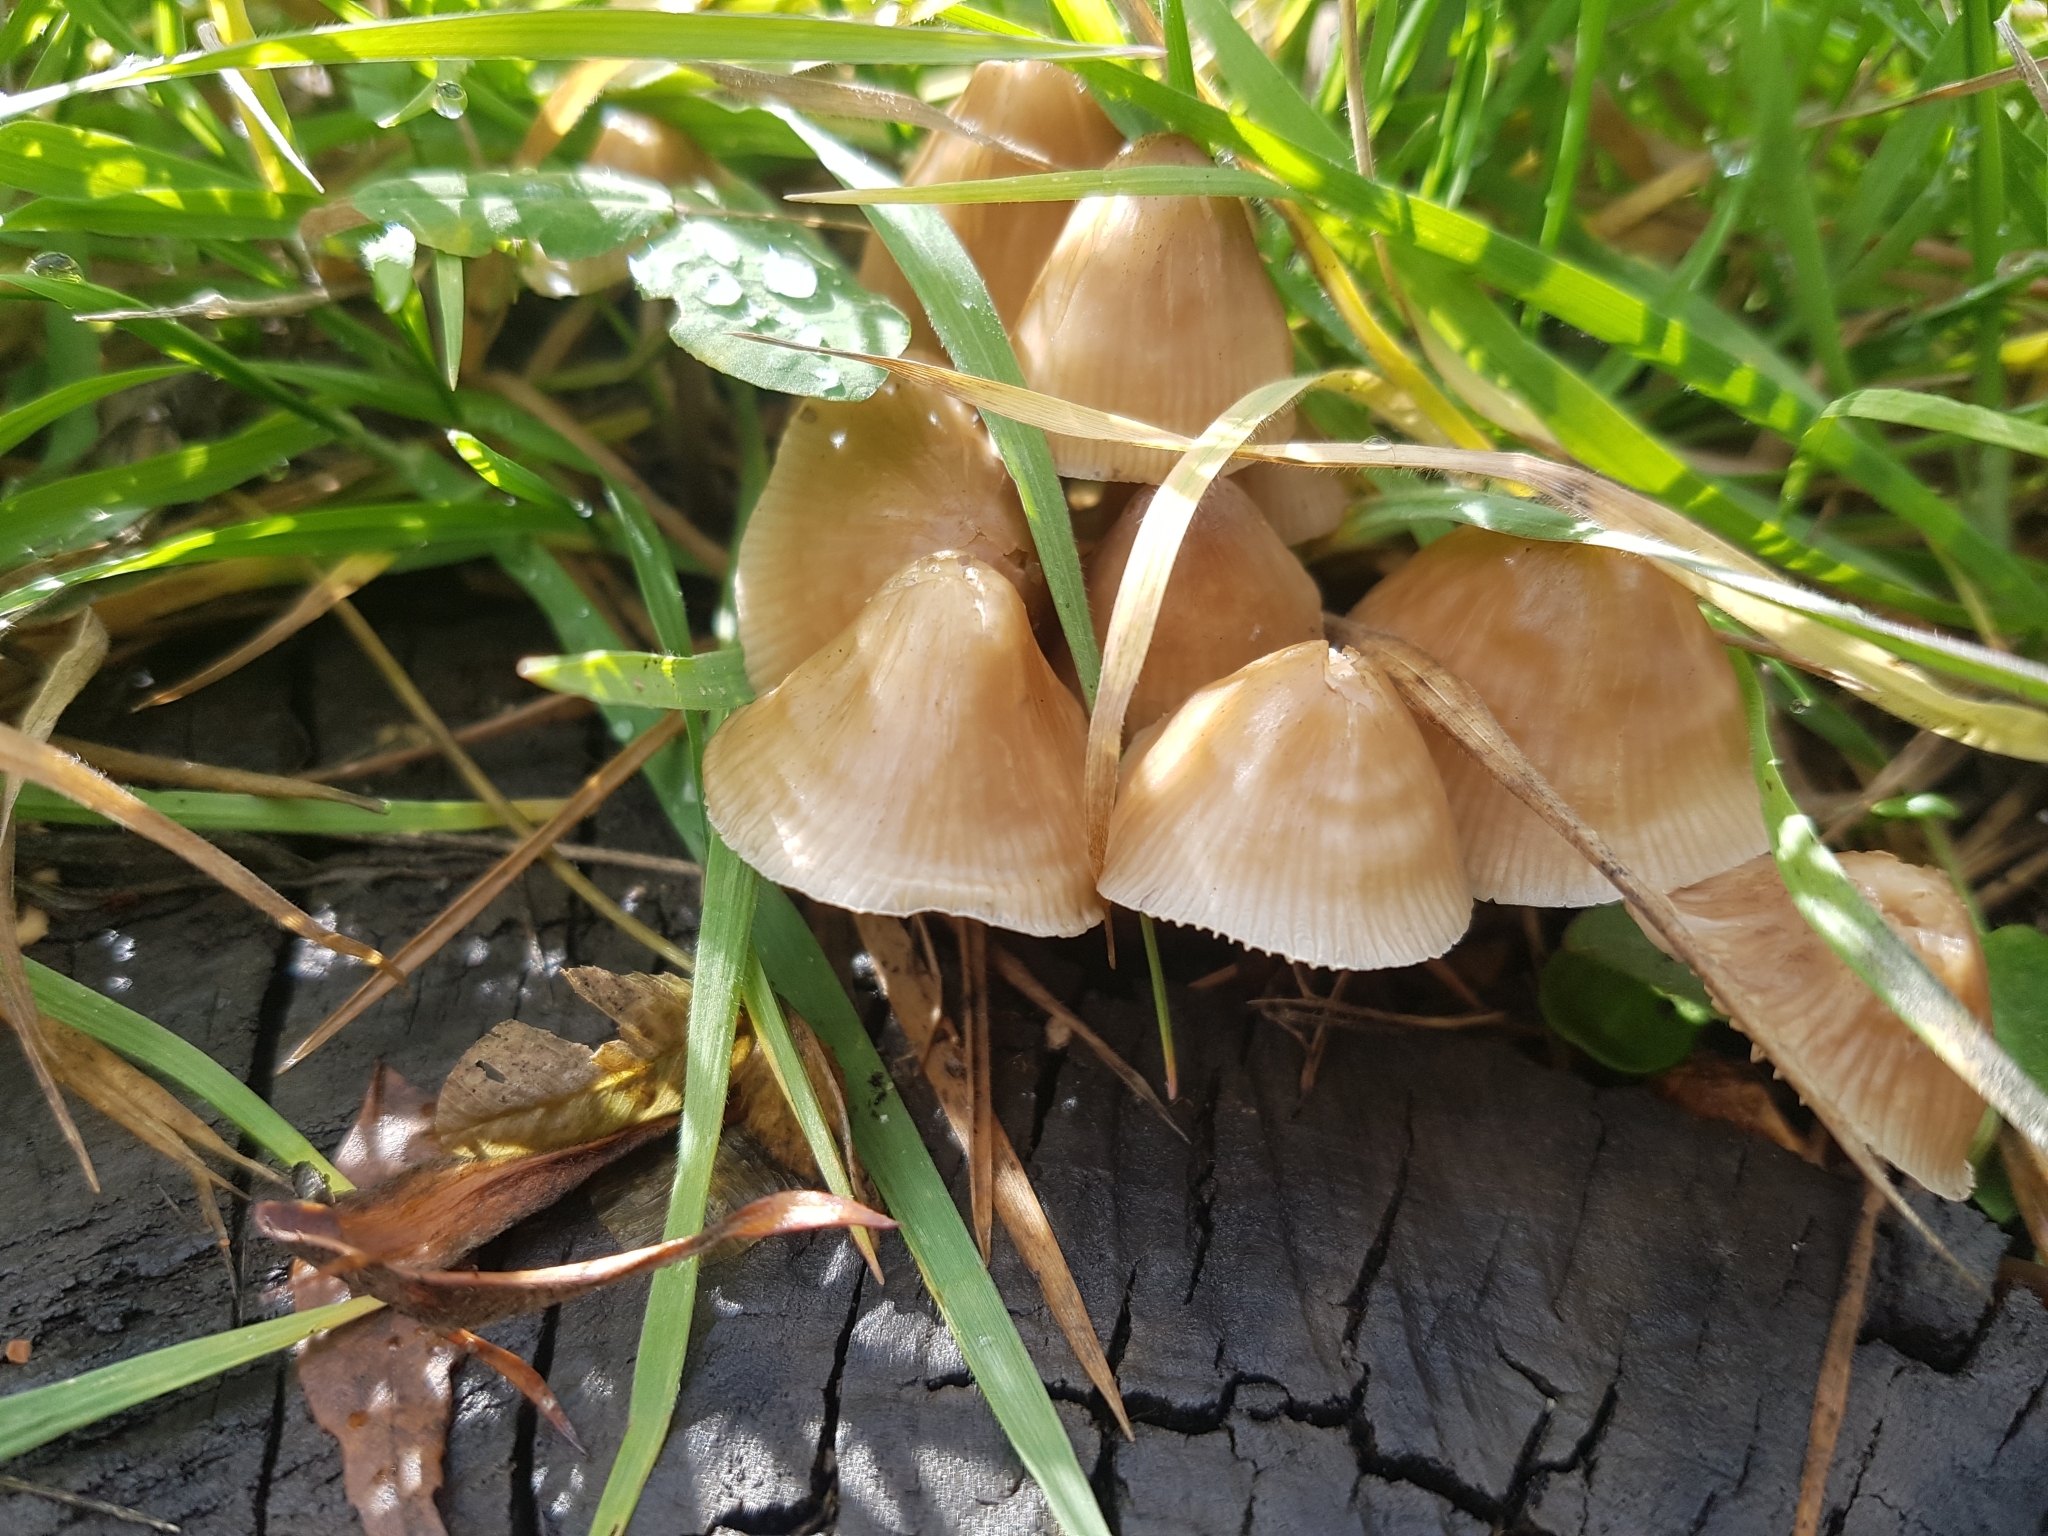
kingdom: Fungi
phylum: Basidiomycota
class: Agaricomycetes
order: Agaricales
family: Mycenaceae
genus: Mycena
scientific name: Mycena galericulata
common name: Bonnet mycena
